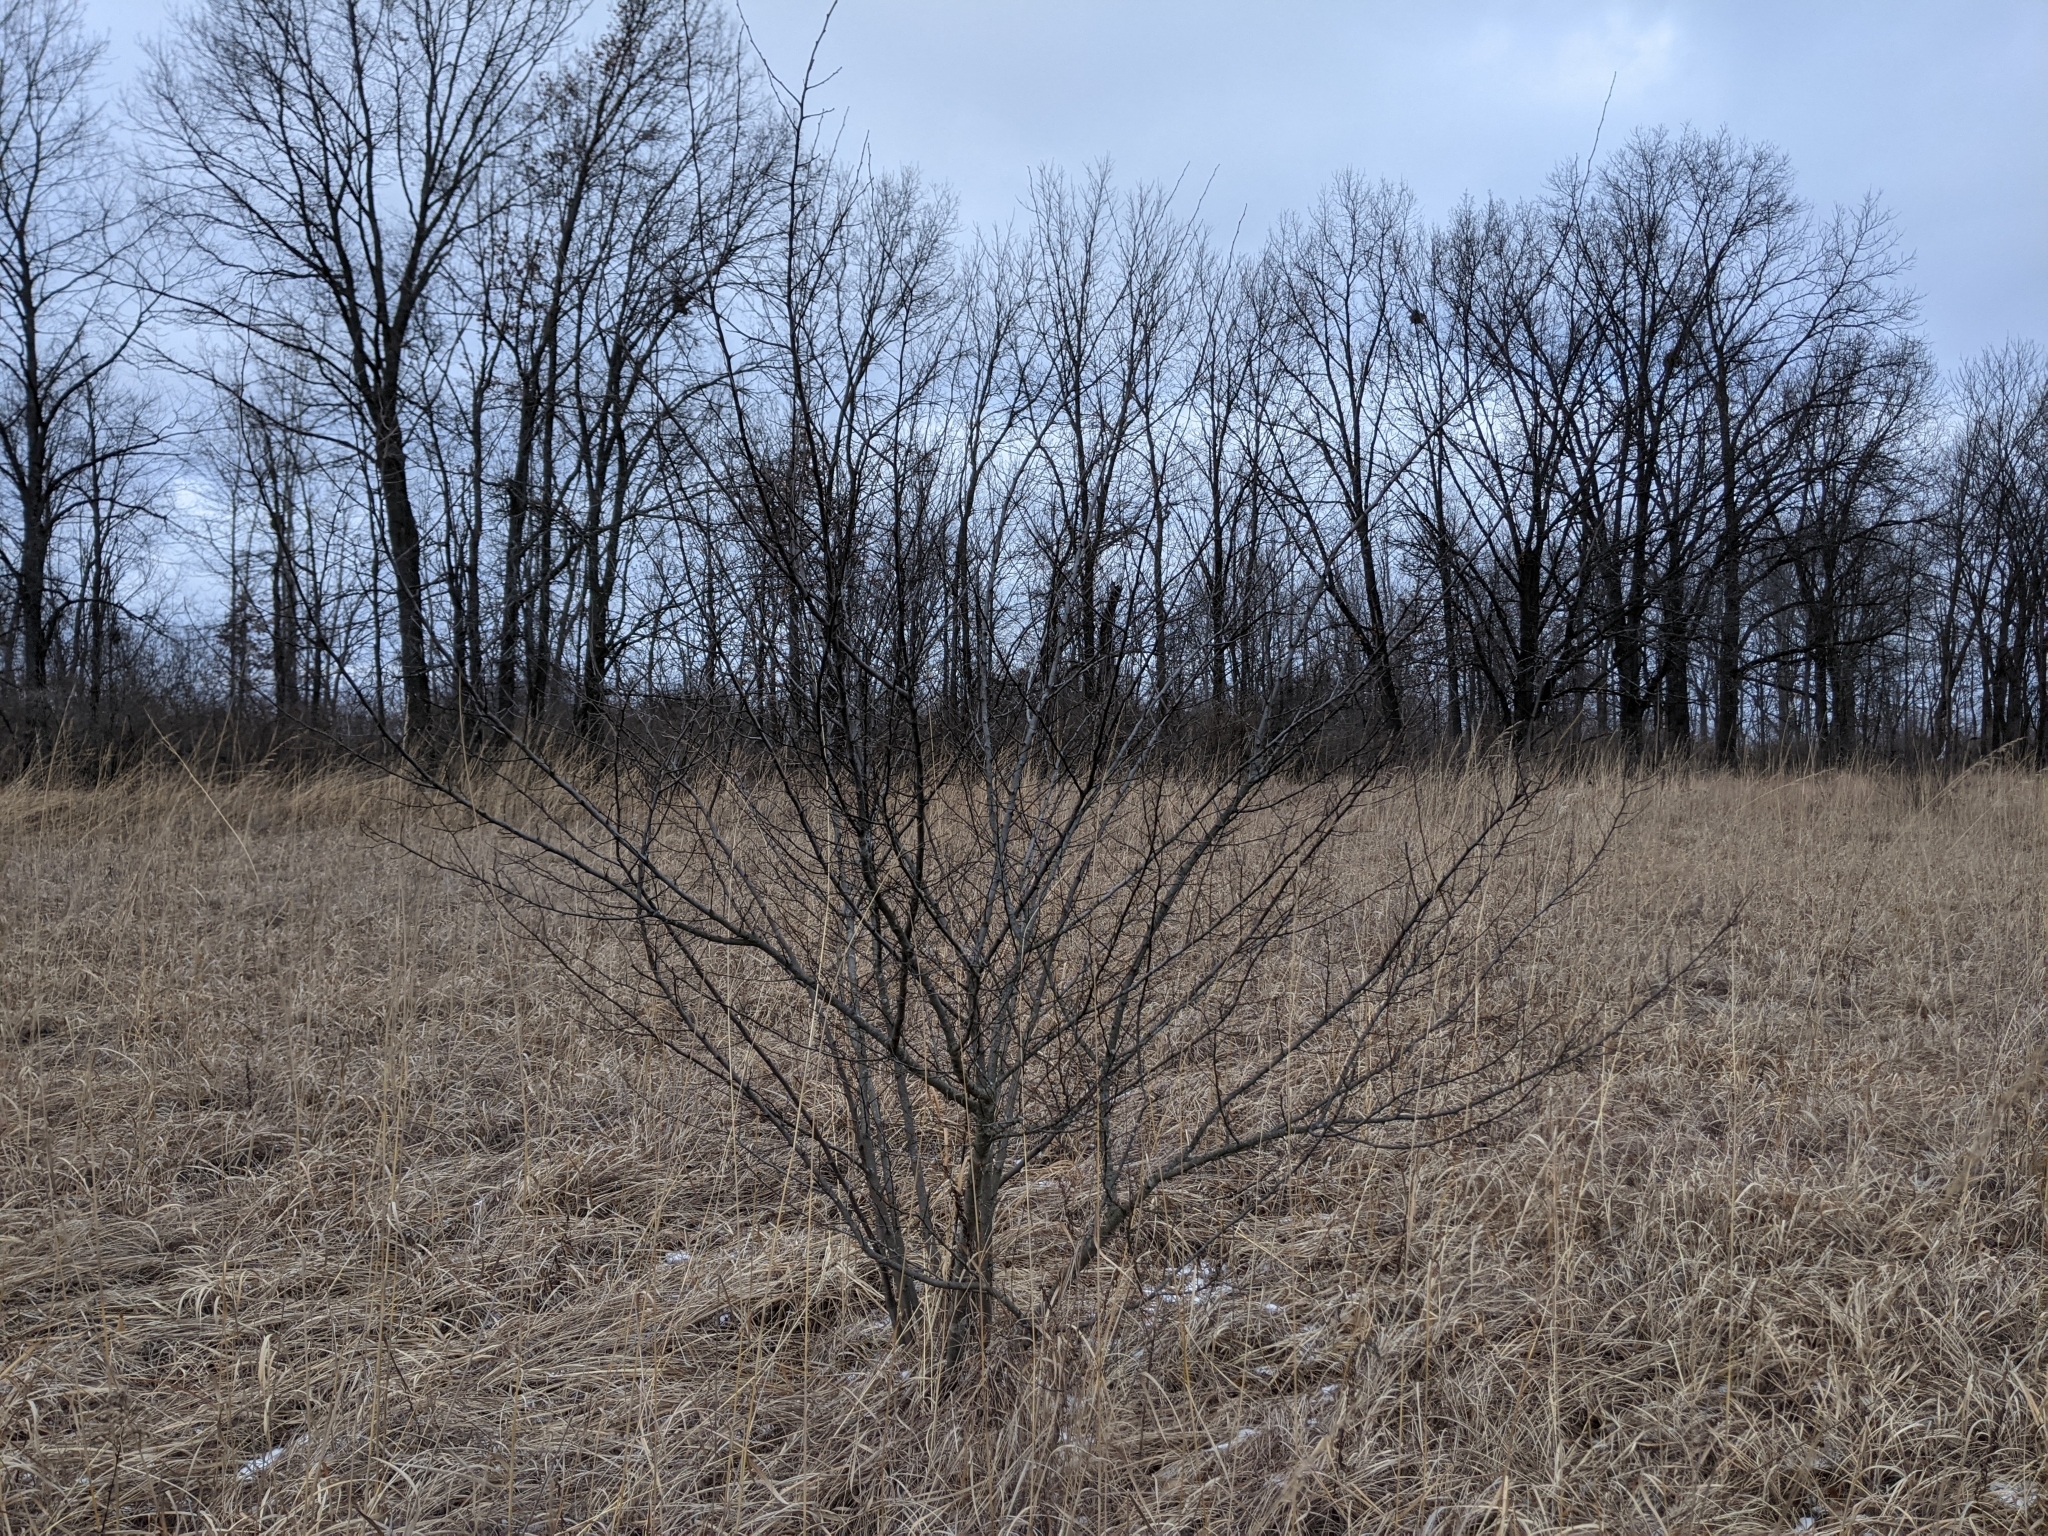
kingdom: Plantae
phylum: Tracheophyta
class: Magnoliopsida
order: Rosales
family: Elaeagnaceae
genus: Elaeagnus
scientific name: Elaeagnus umbellata
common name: Autumn olive
